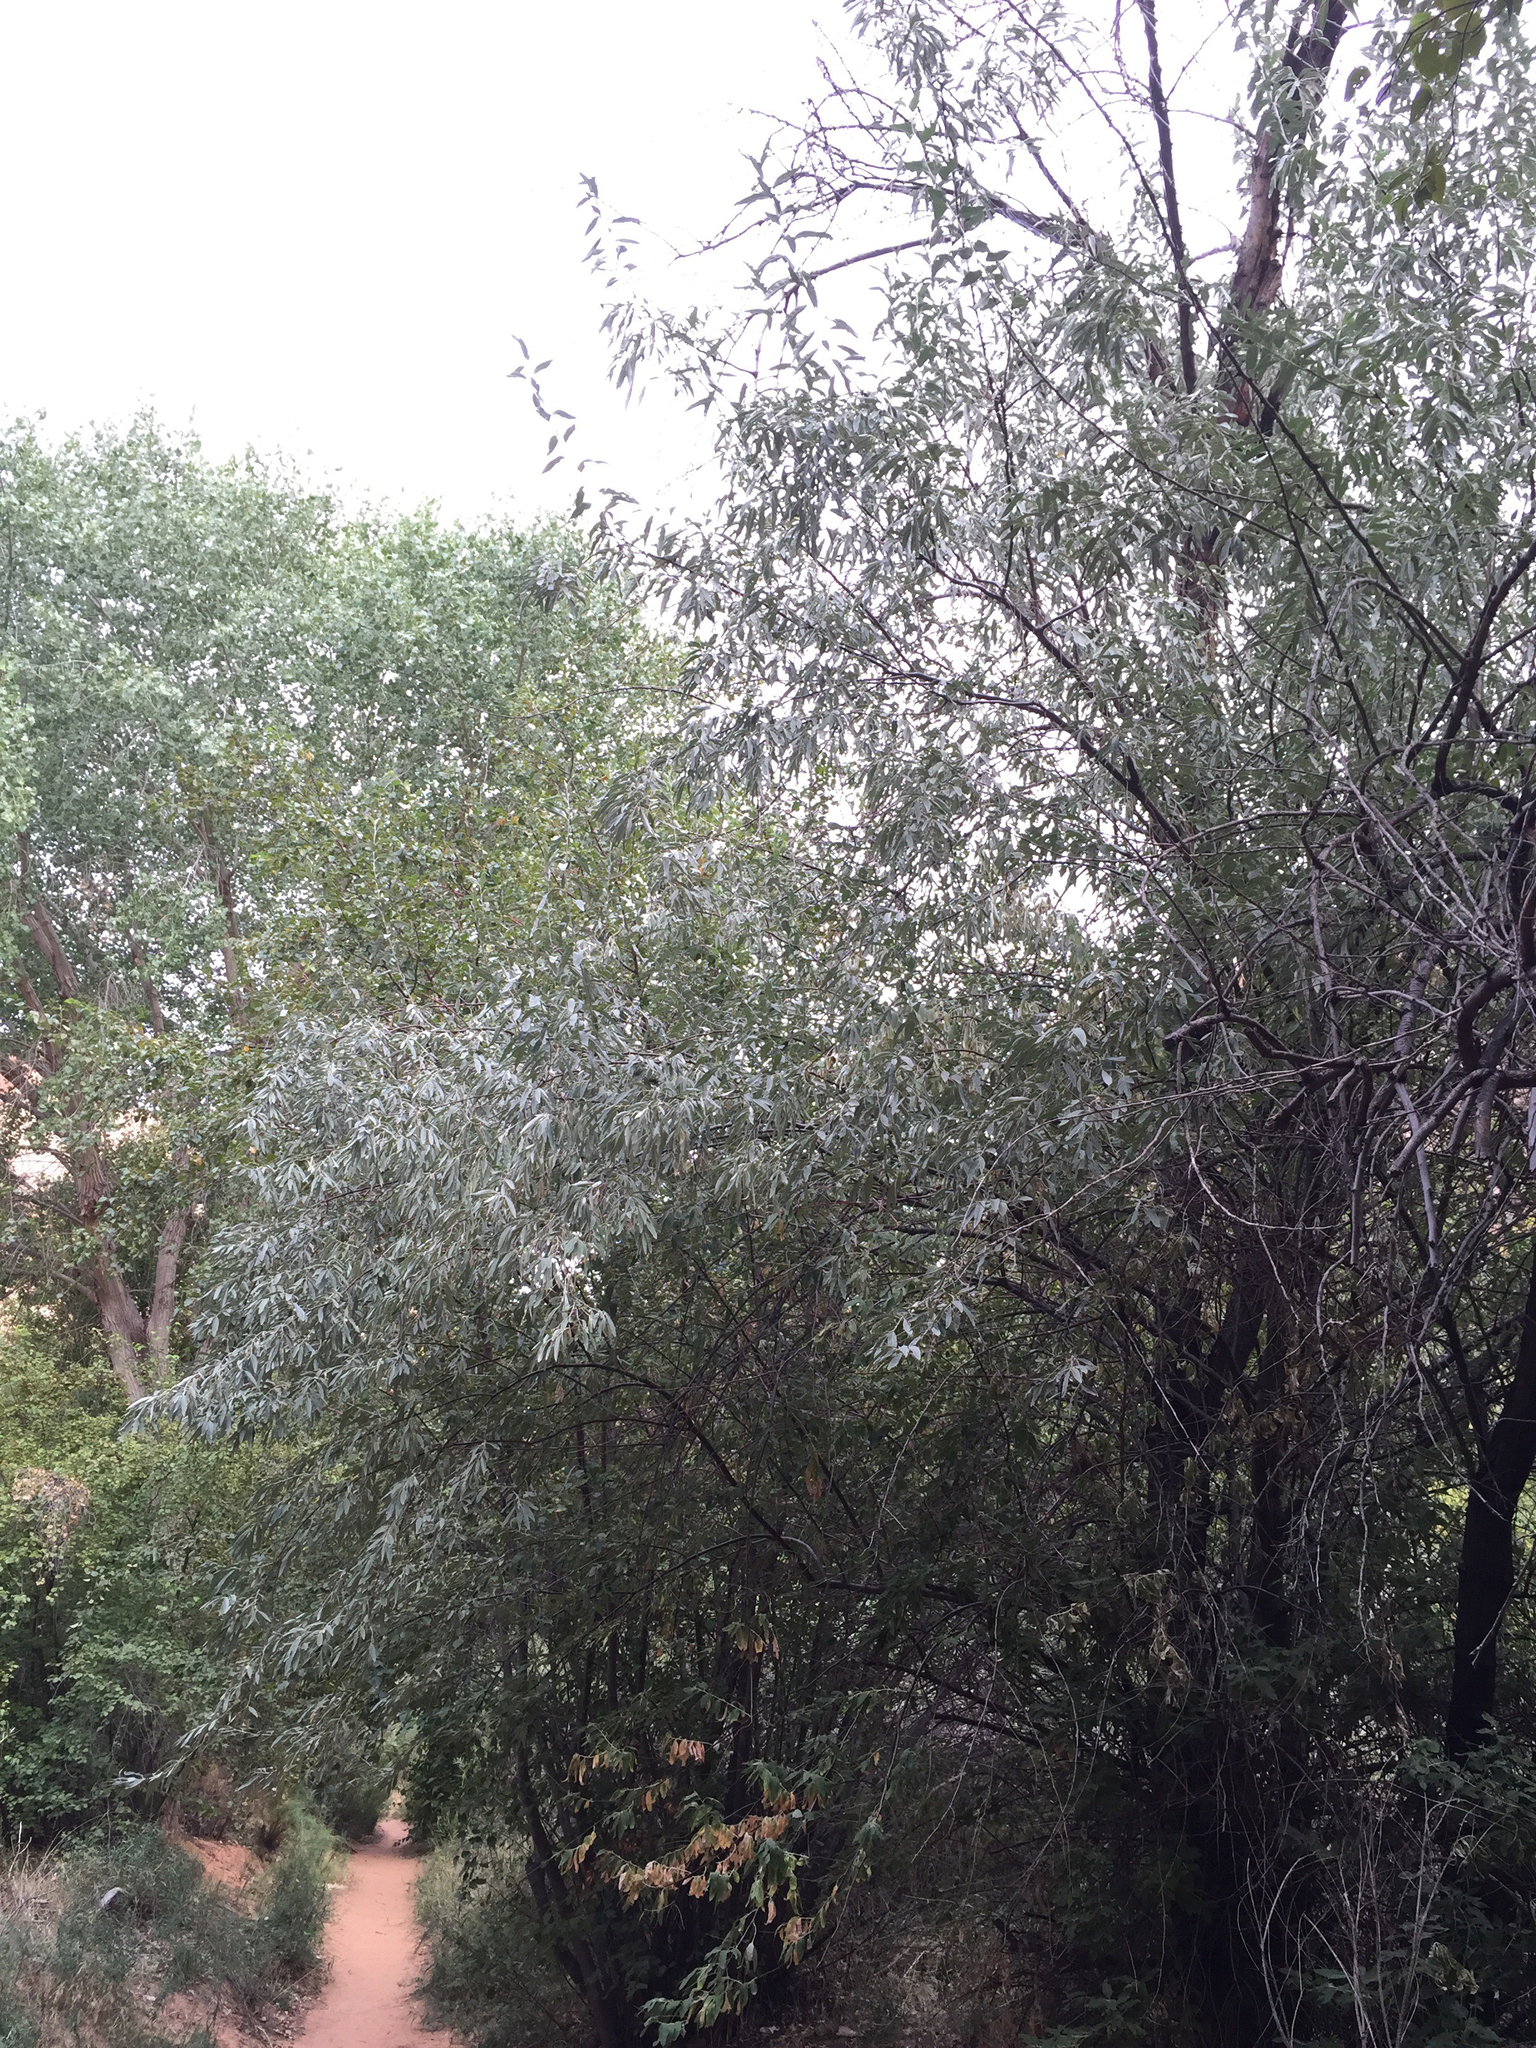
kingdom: Plantae
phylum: Tracheophyta
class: Magnoliopsida
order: Rosales
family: Elaeagnaceae
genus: Elaeagnus
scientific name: Elaeagnus angustifolia
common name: Russian olive
